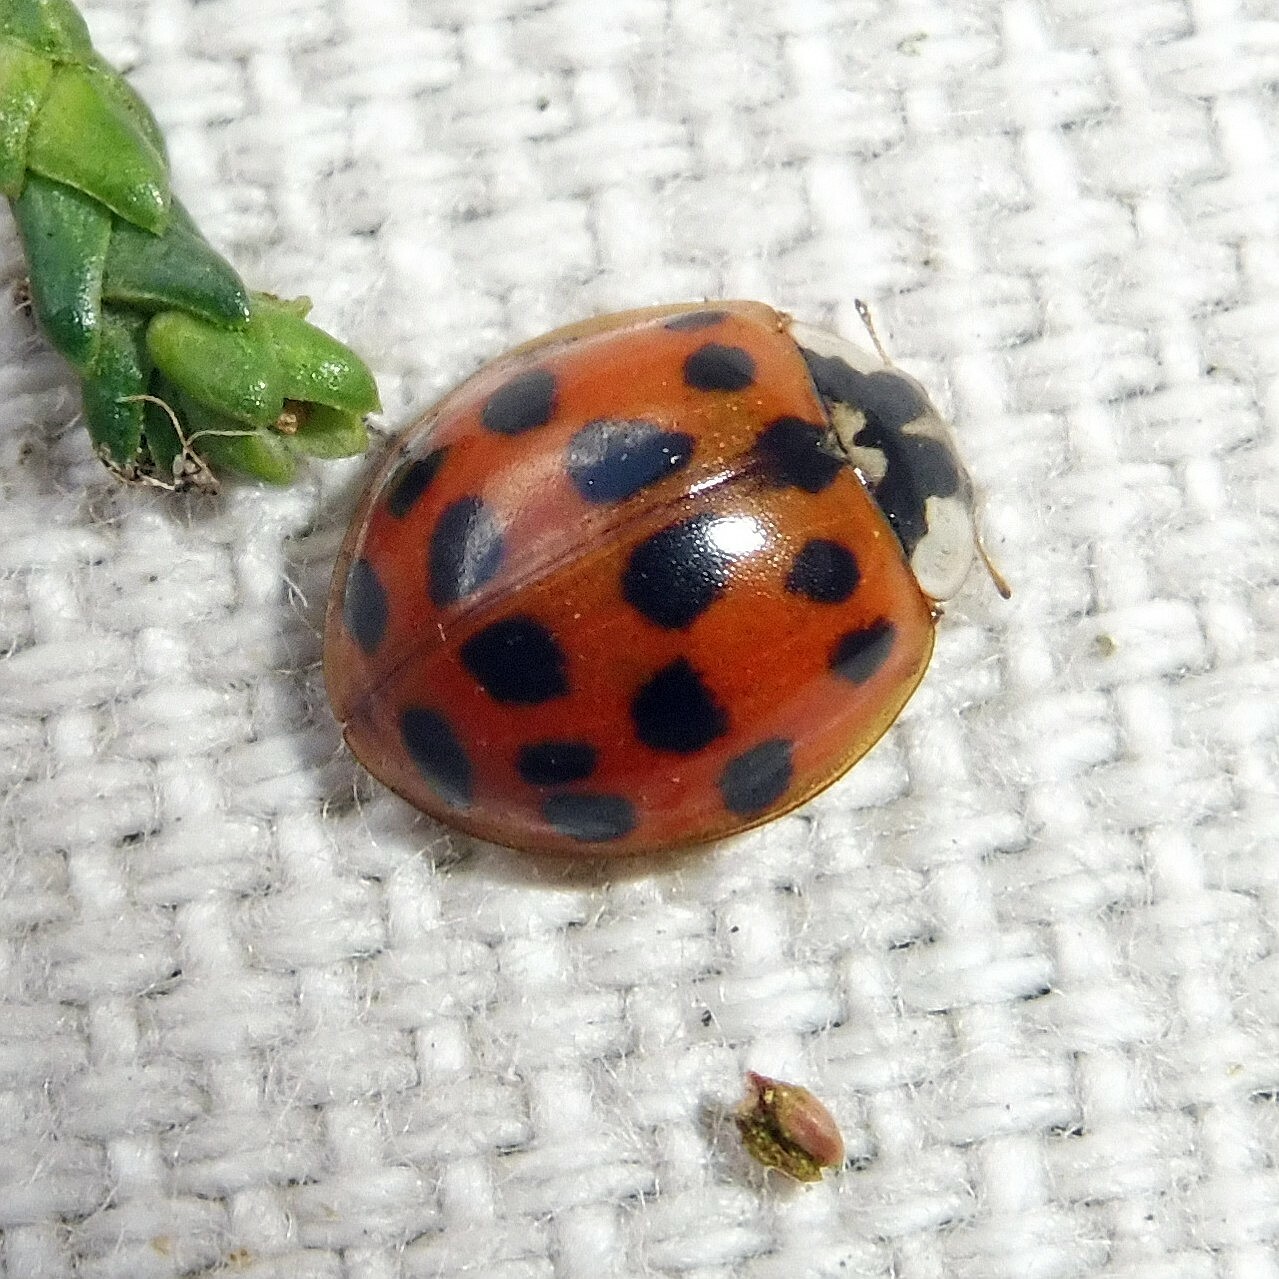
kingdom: Animalia
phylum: Arthropoda
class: Insecta
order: Coleoptera
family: Coccinellidae
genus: Harmonia
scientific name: Harmonia axyridis
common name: Harlequin ladybird
